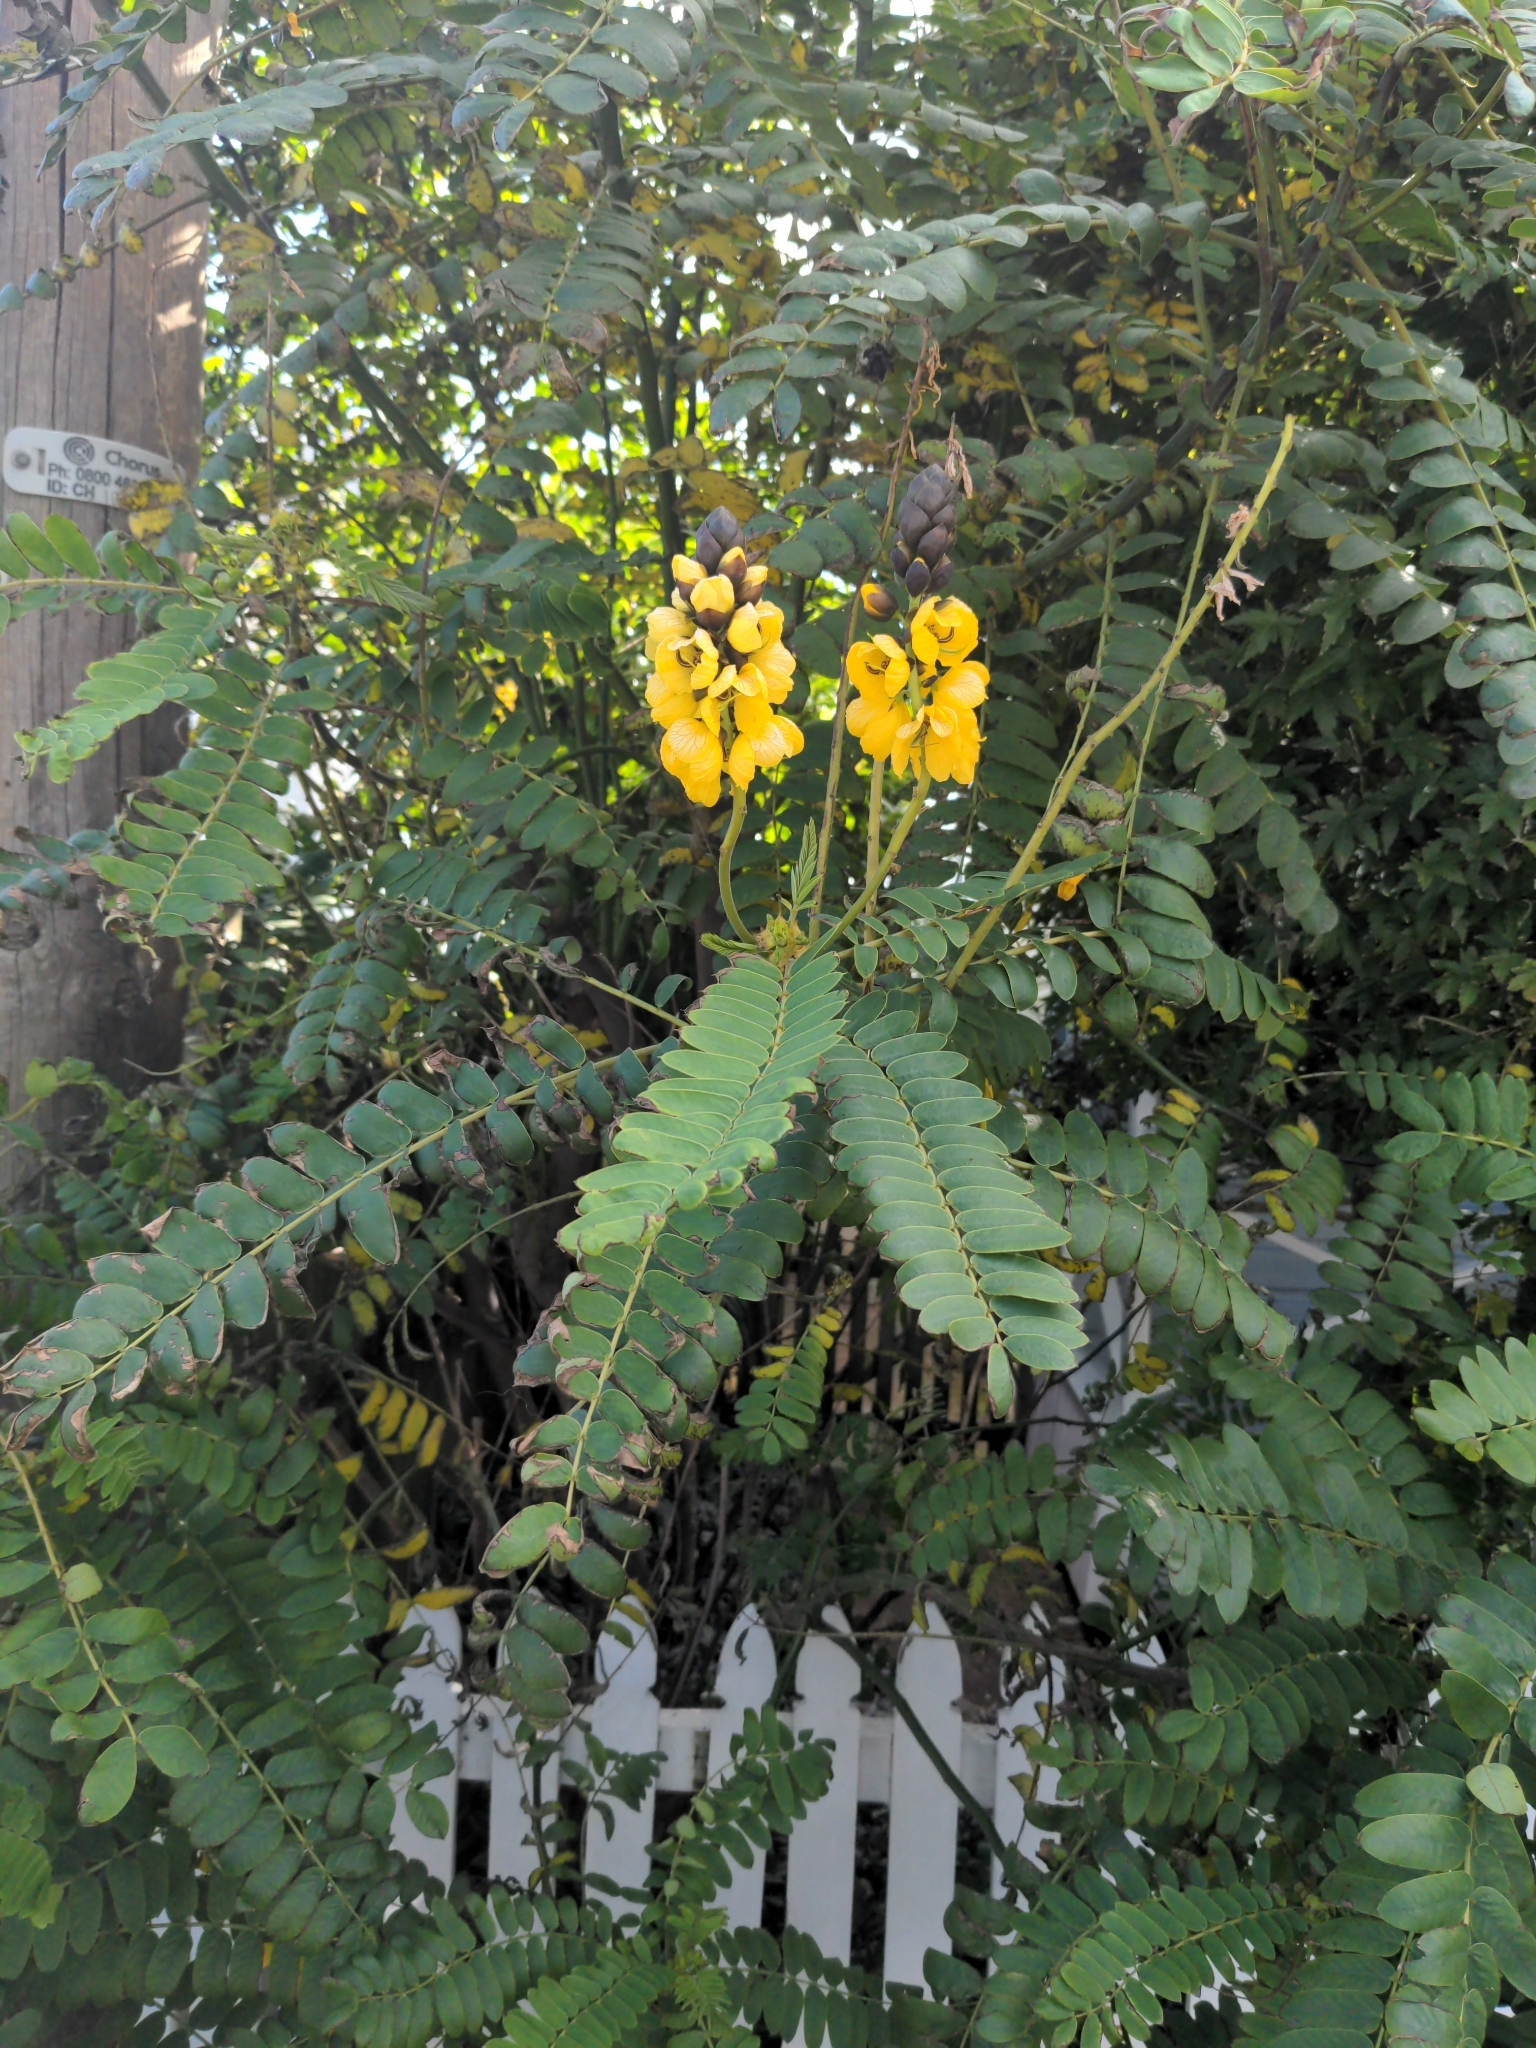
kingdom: Plantae
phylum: Tracheophyta
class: Magnoliopsida
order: Fabales
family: Fabaceae
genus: Senna
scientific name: Senna didymobotrya
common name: African senna
